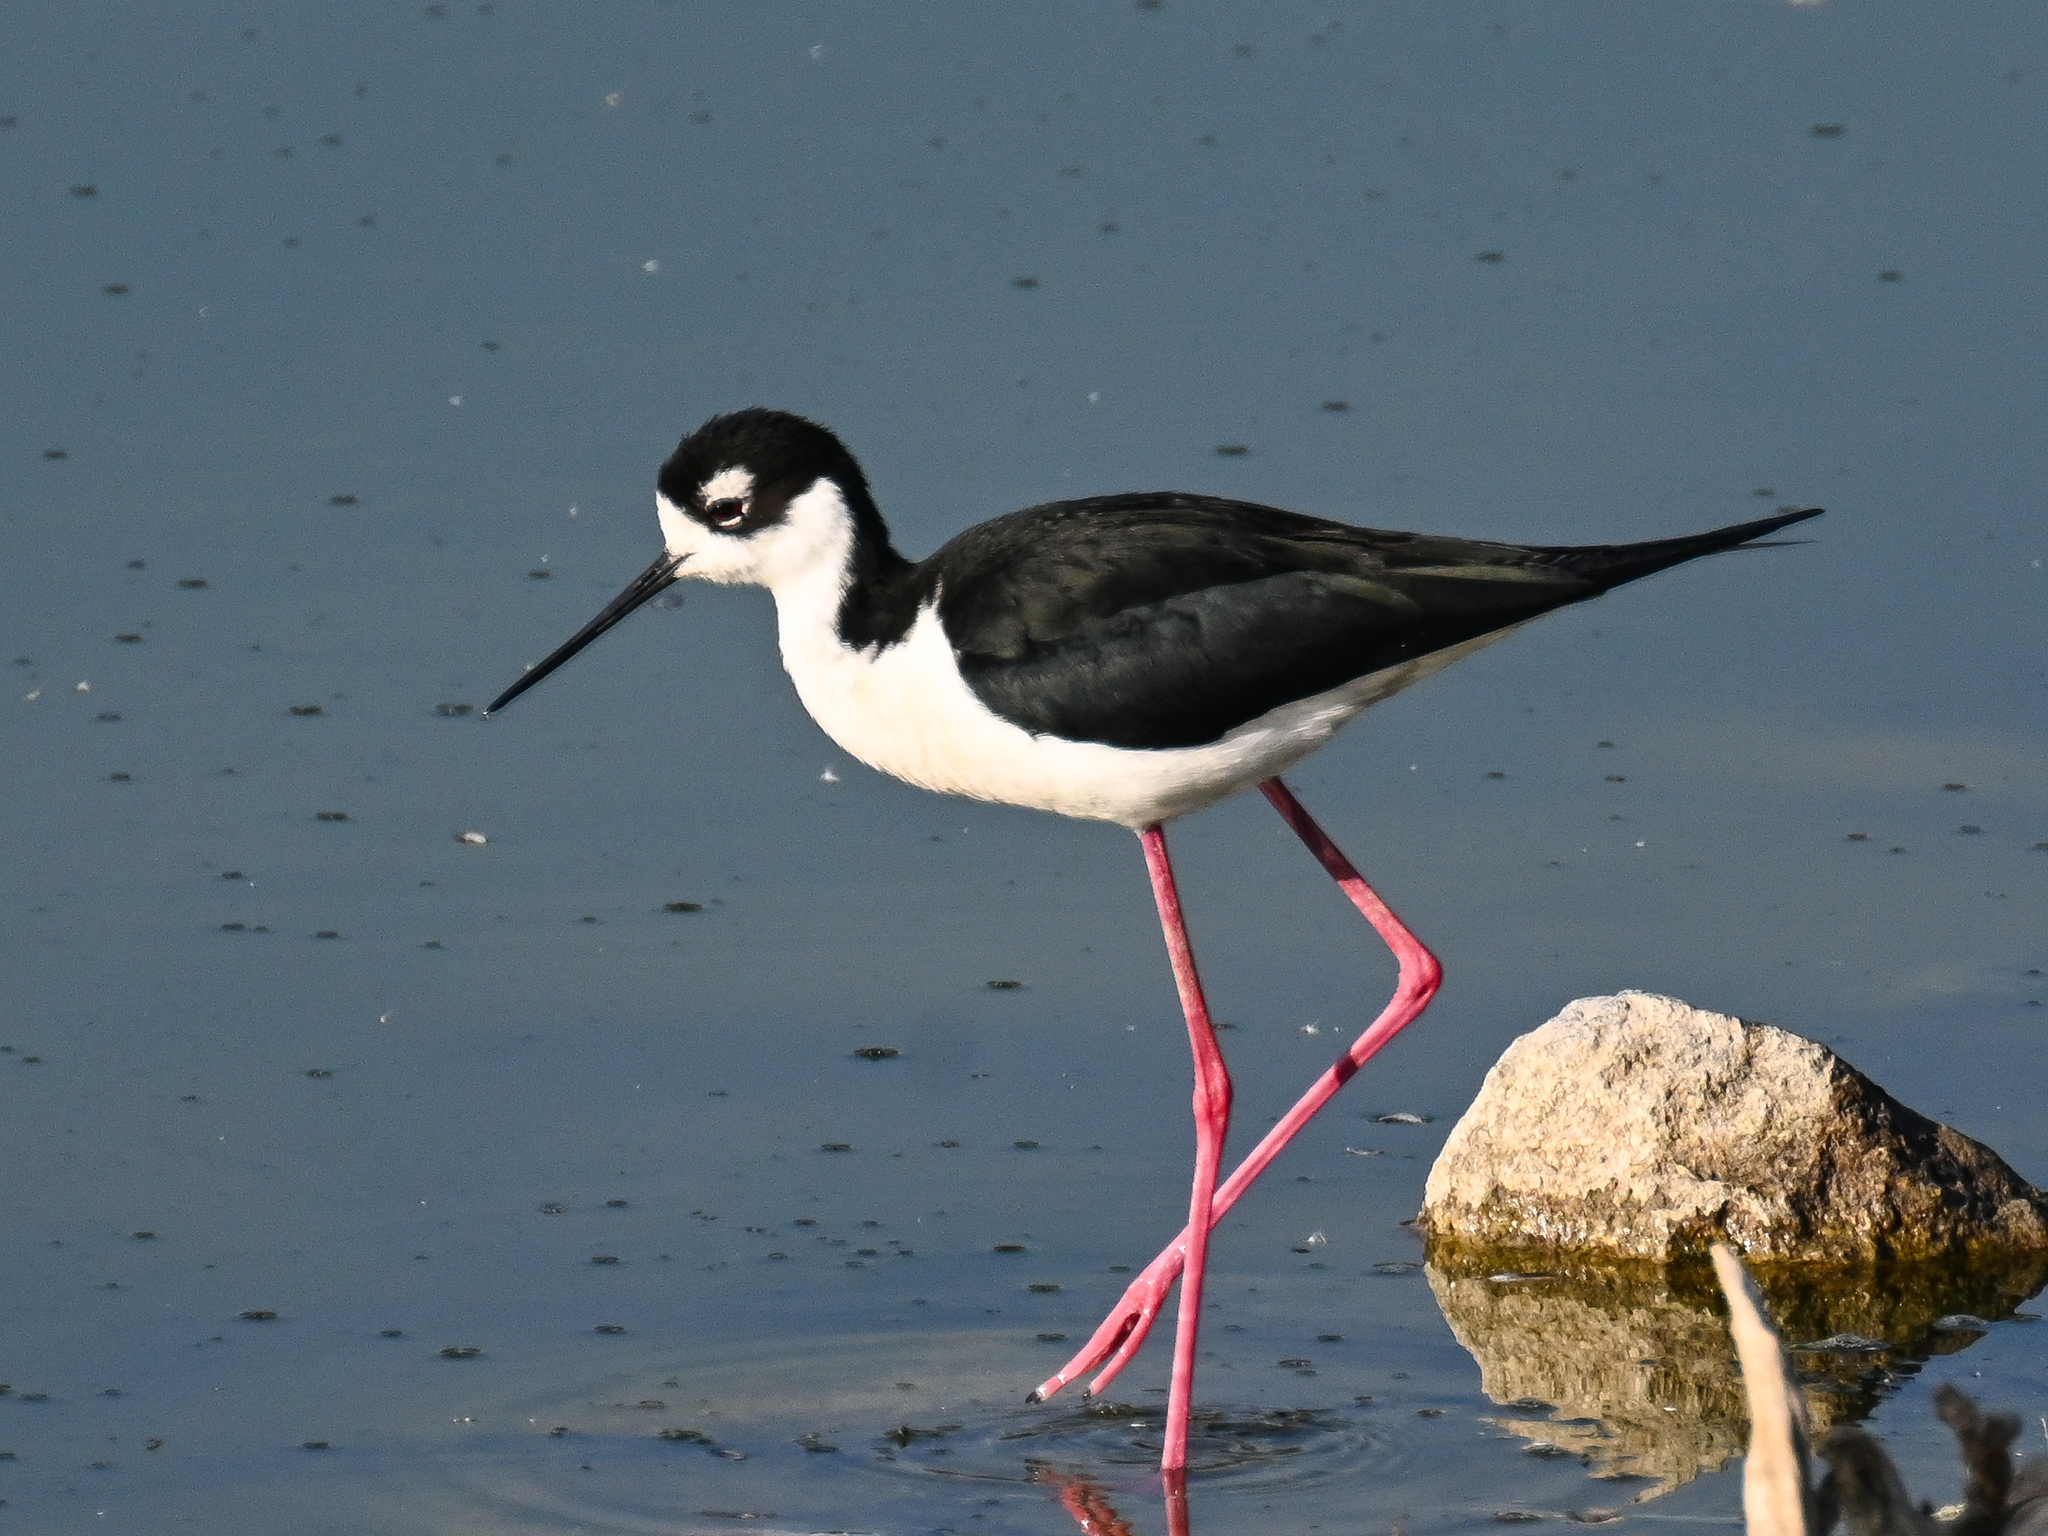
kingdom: Animalia
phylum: Chordata
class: Aves
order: Charadriiformes
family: Recurvirostridae
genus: Himantopus
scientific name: Himantopus mexicanus
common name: Black-necked stilt
